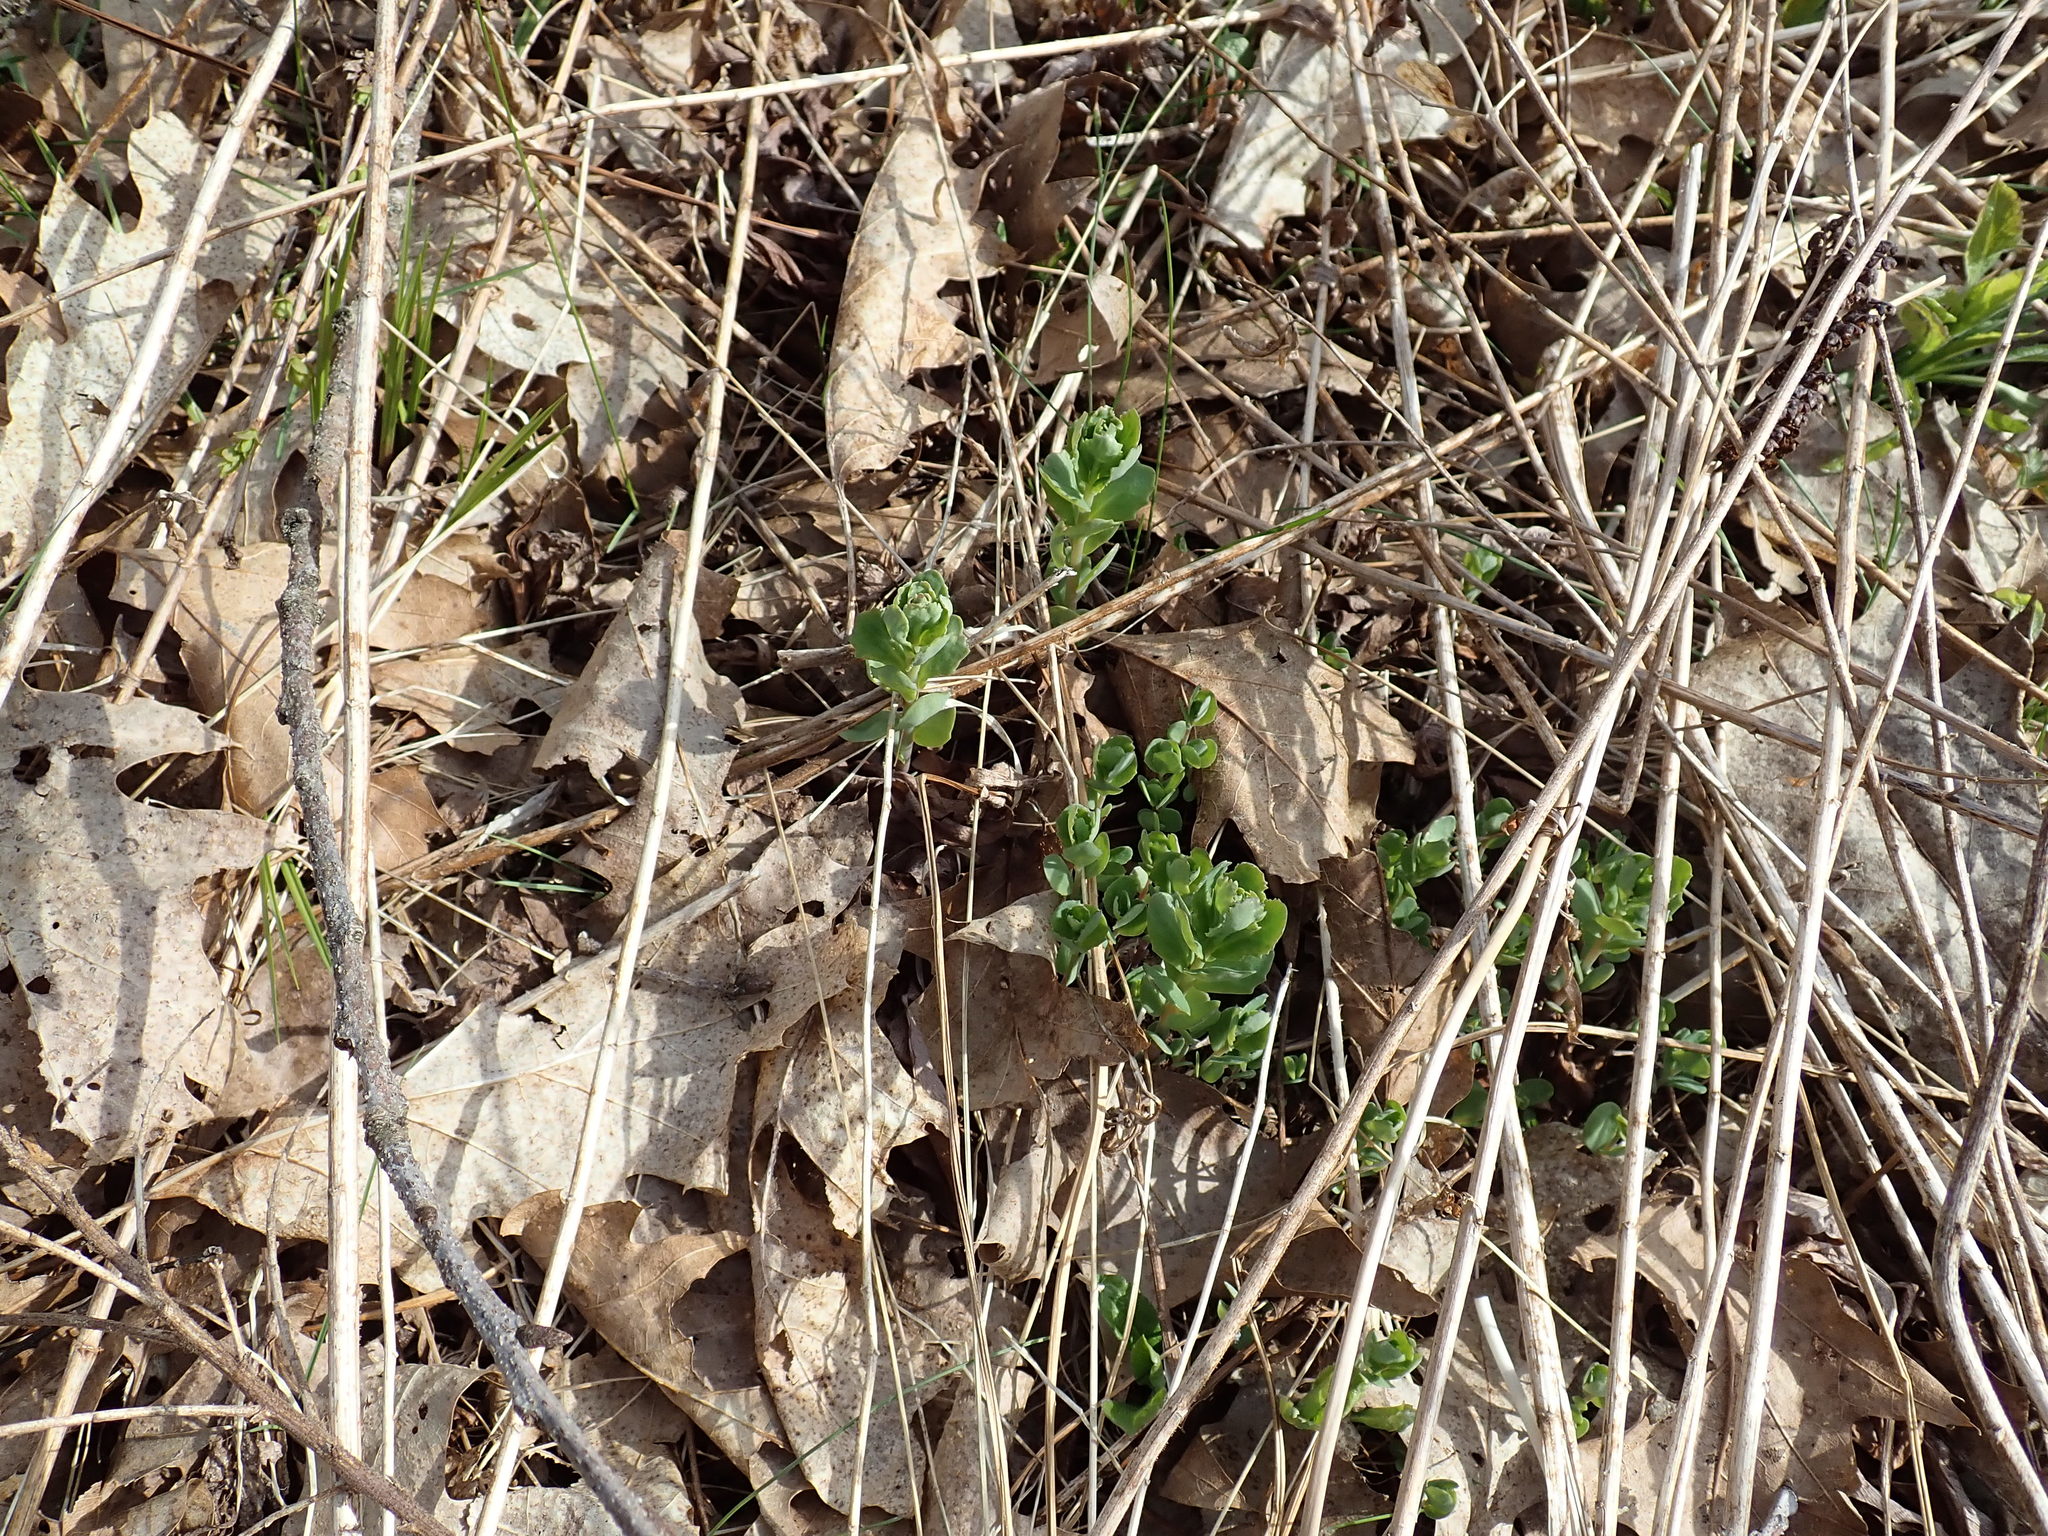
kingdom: Plantae
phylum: Tracheophyta
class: Magnoliopsida
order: Saxifragales
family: Crassulaceae
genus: Hylotelephium
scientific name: Hylotelephium telephium
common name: Live-forever
